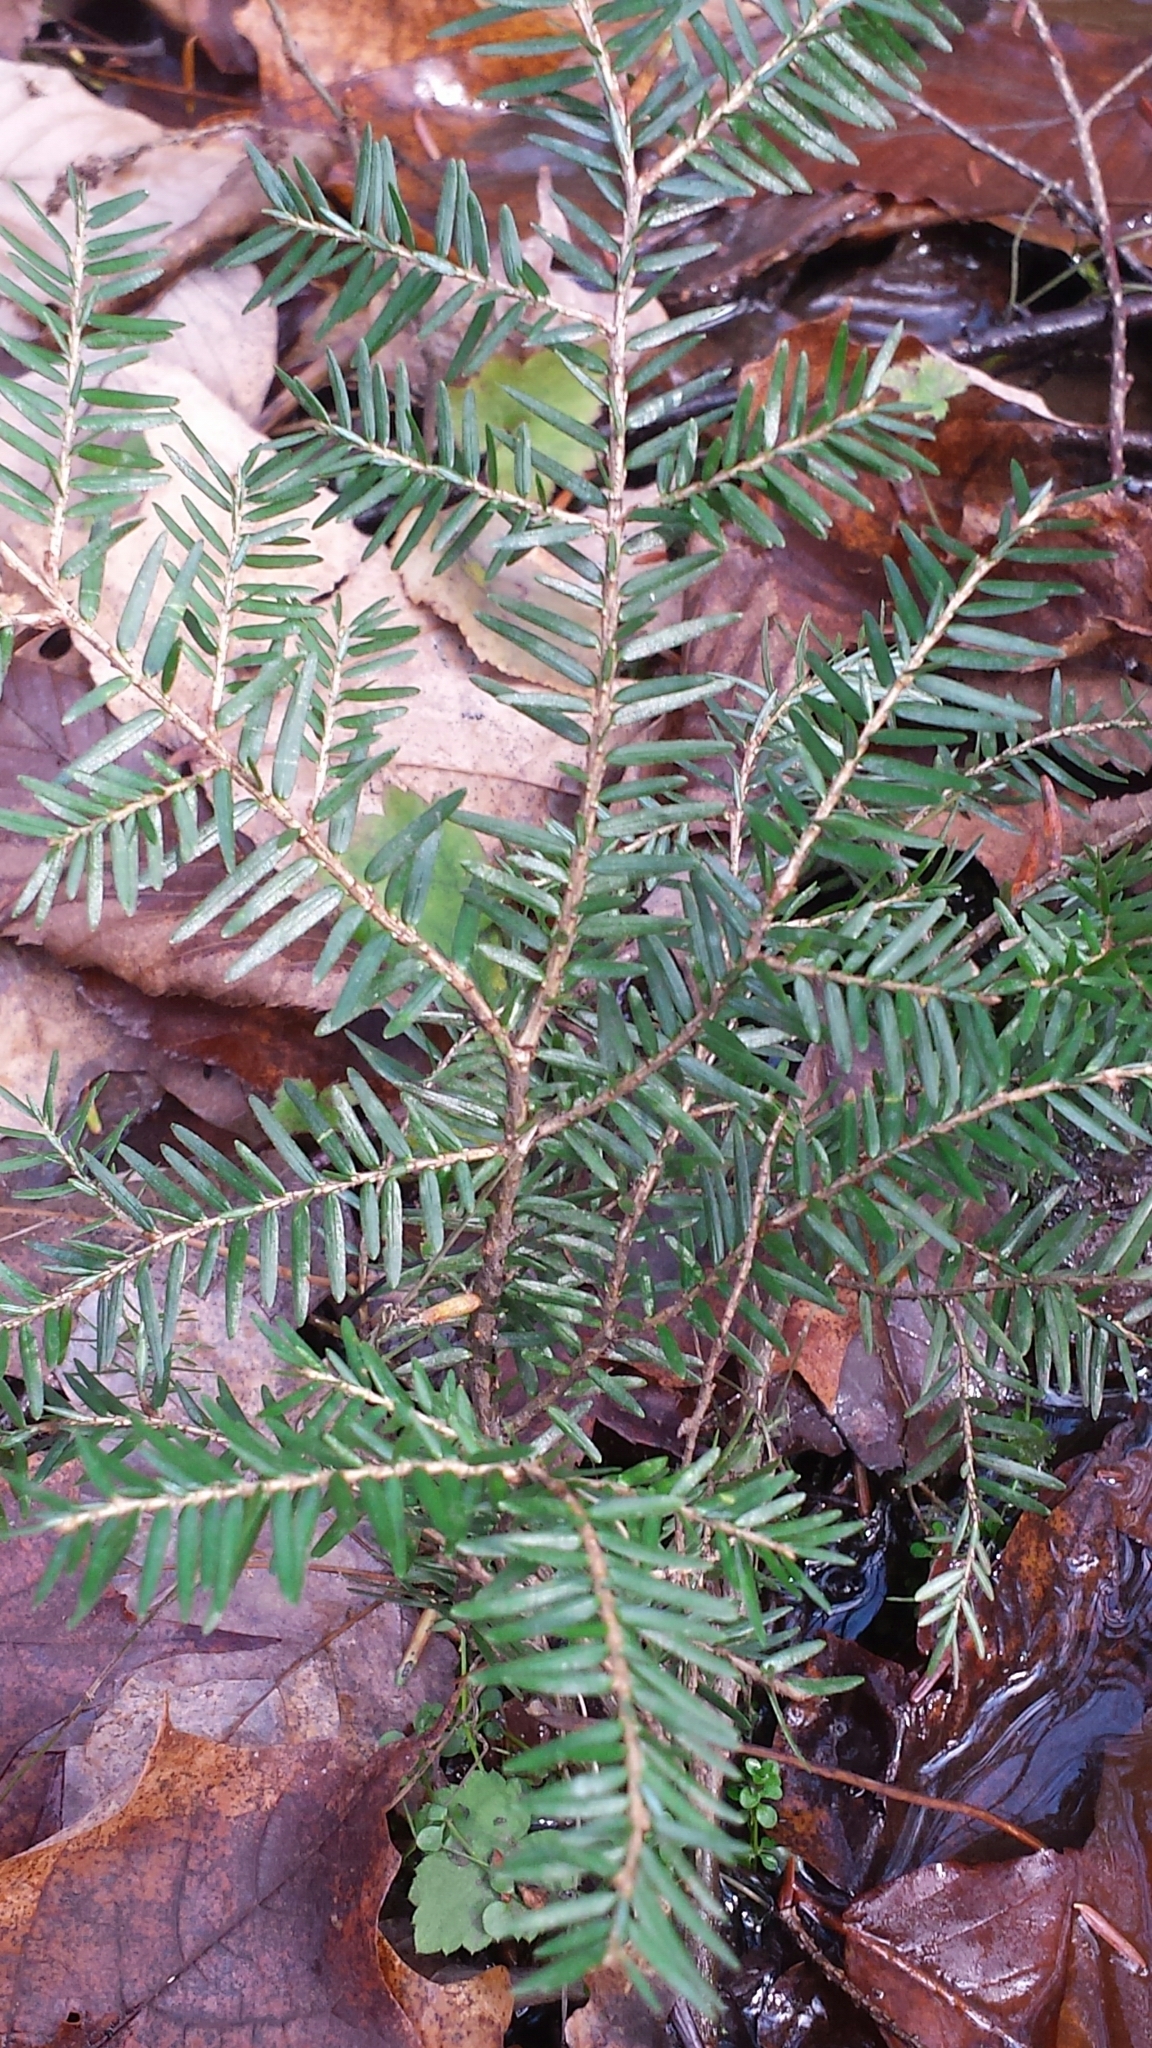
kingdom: Plantae
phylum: Tracheophyta
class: Pinopsida
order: Pinales
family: Pinaceae
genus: Tsuga
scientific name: Tsuga canadensis
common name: Eastern hemlock
